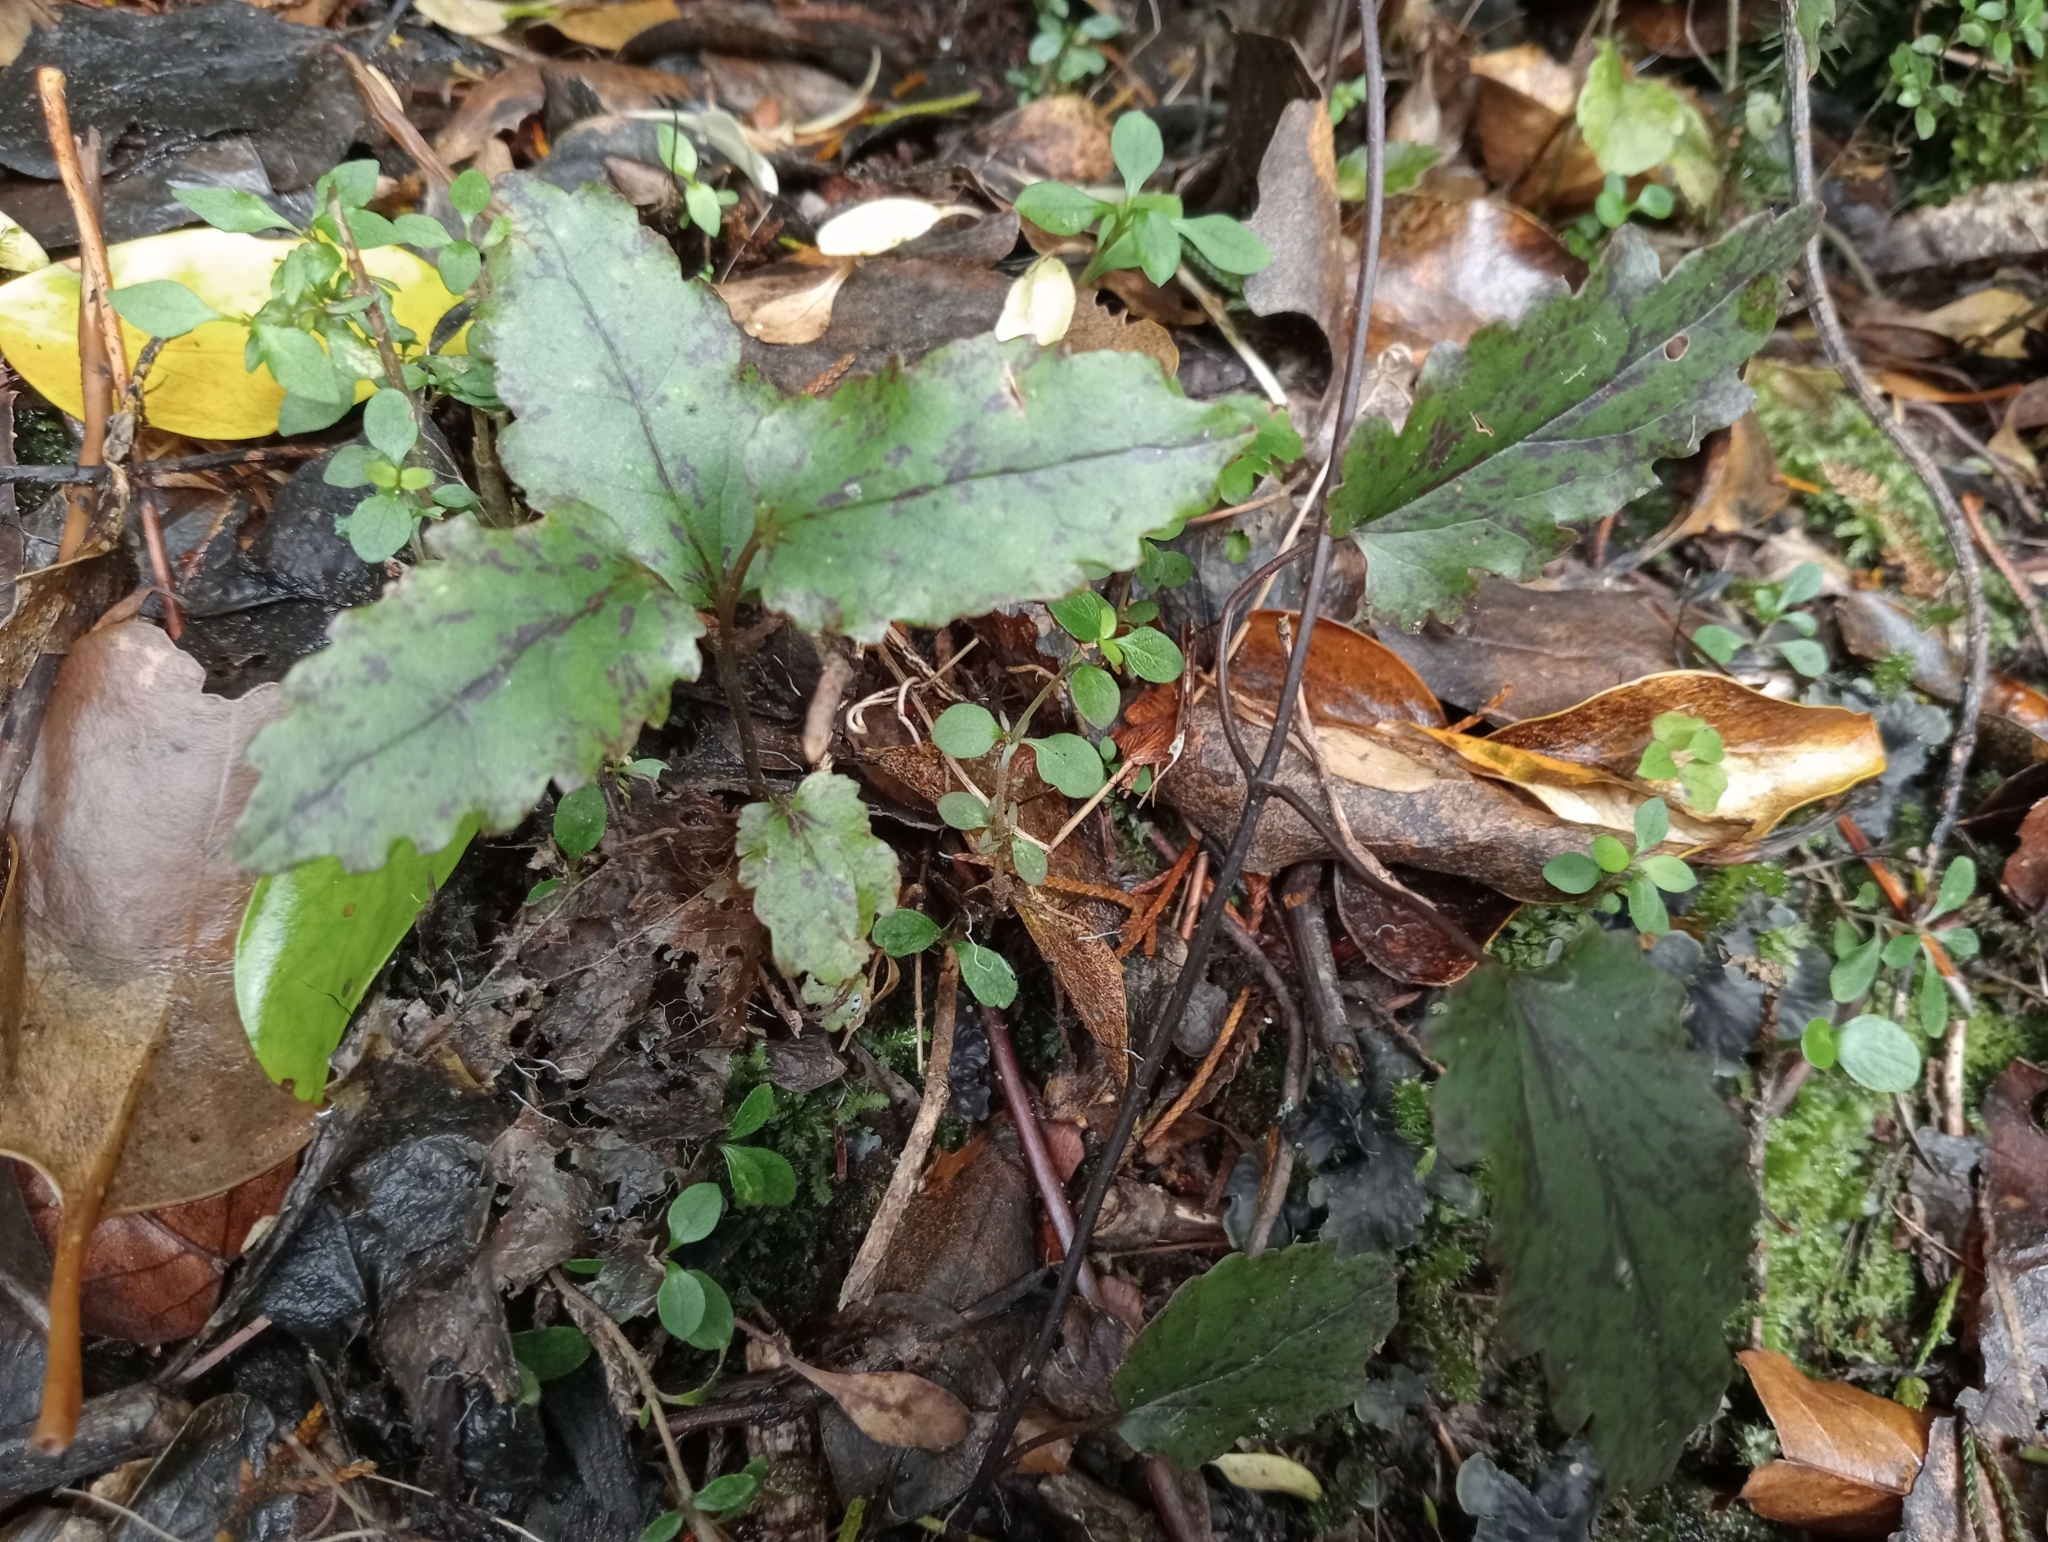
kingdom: Plantae
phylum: Tracheophyta
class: Magnoliopsida
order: Ranunculales
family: Ranunculaceae
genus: Clematis
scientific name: Clematis paniculata
